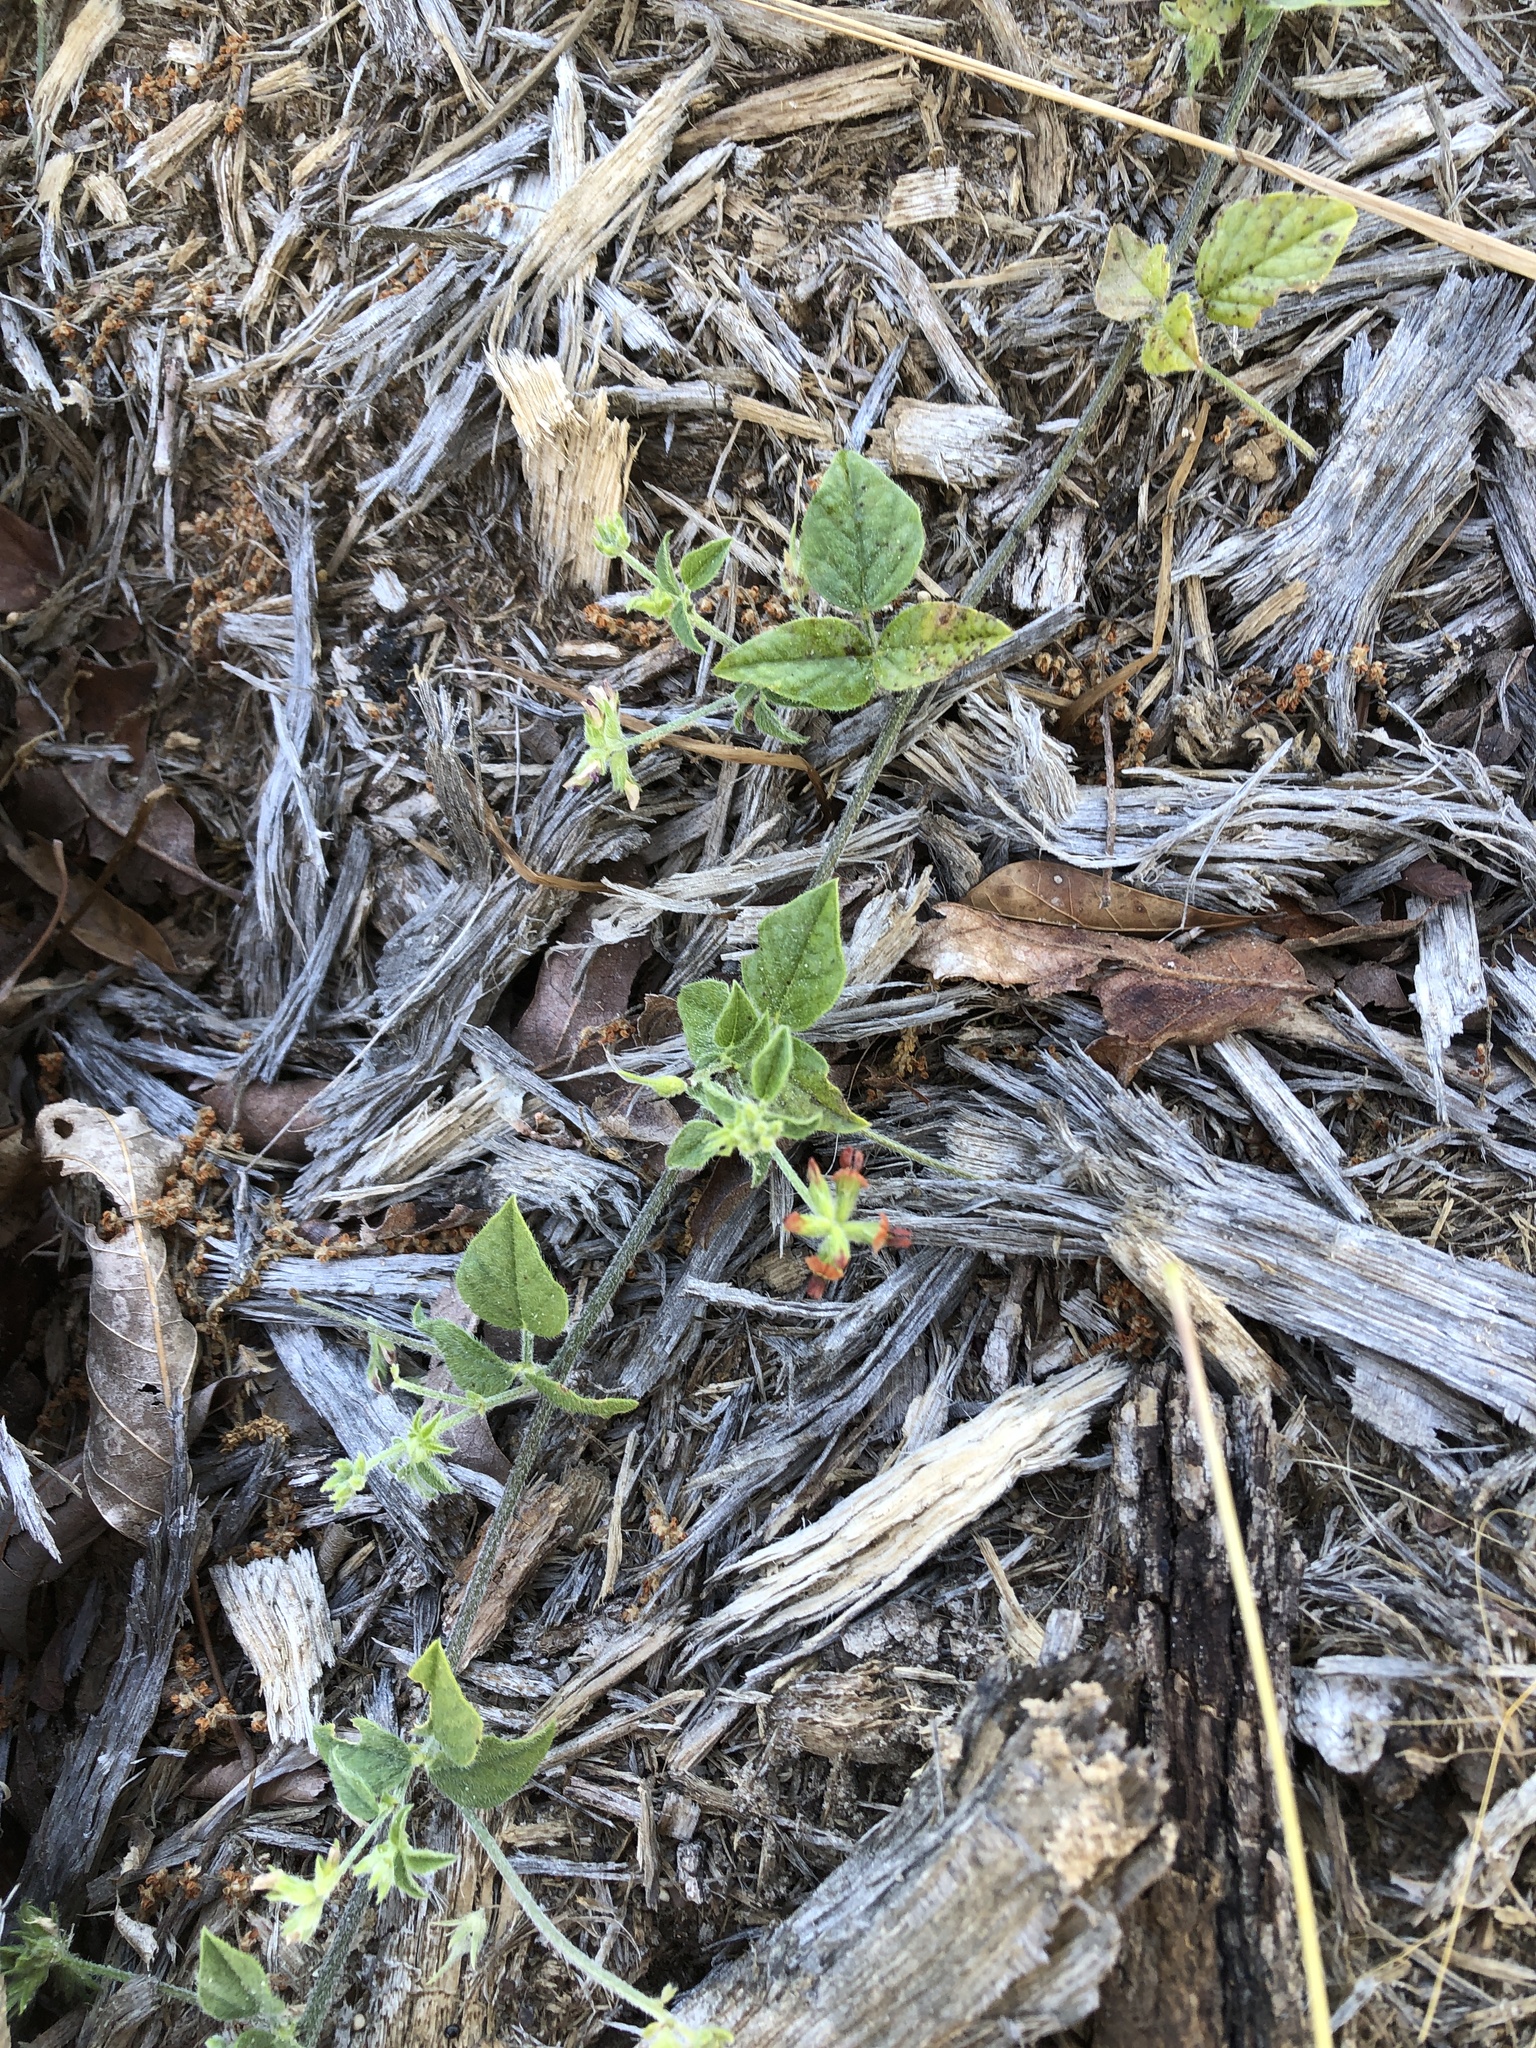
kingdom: Plantae
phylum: Tracheophyta
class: Magnoliopsida
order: Fabales
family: Fabaceae
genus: Pediomelum
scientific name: Pediomelum rhombifolium
